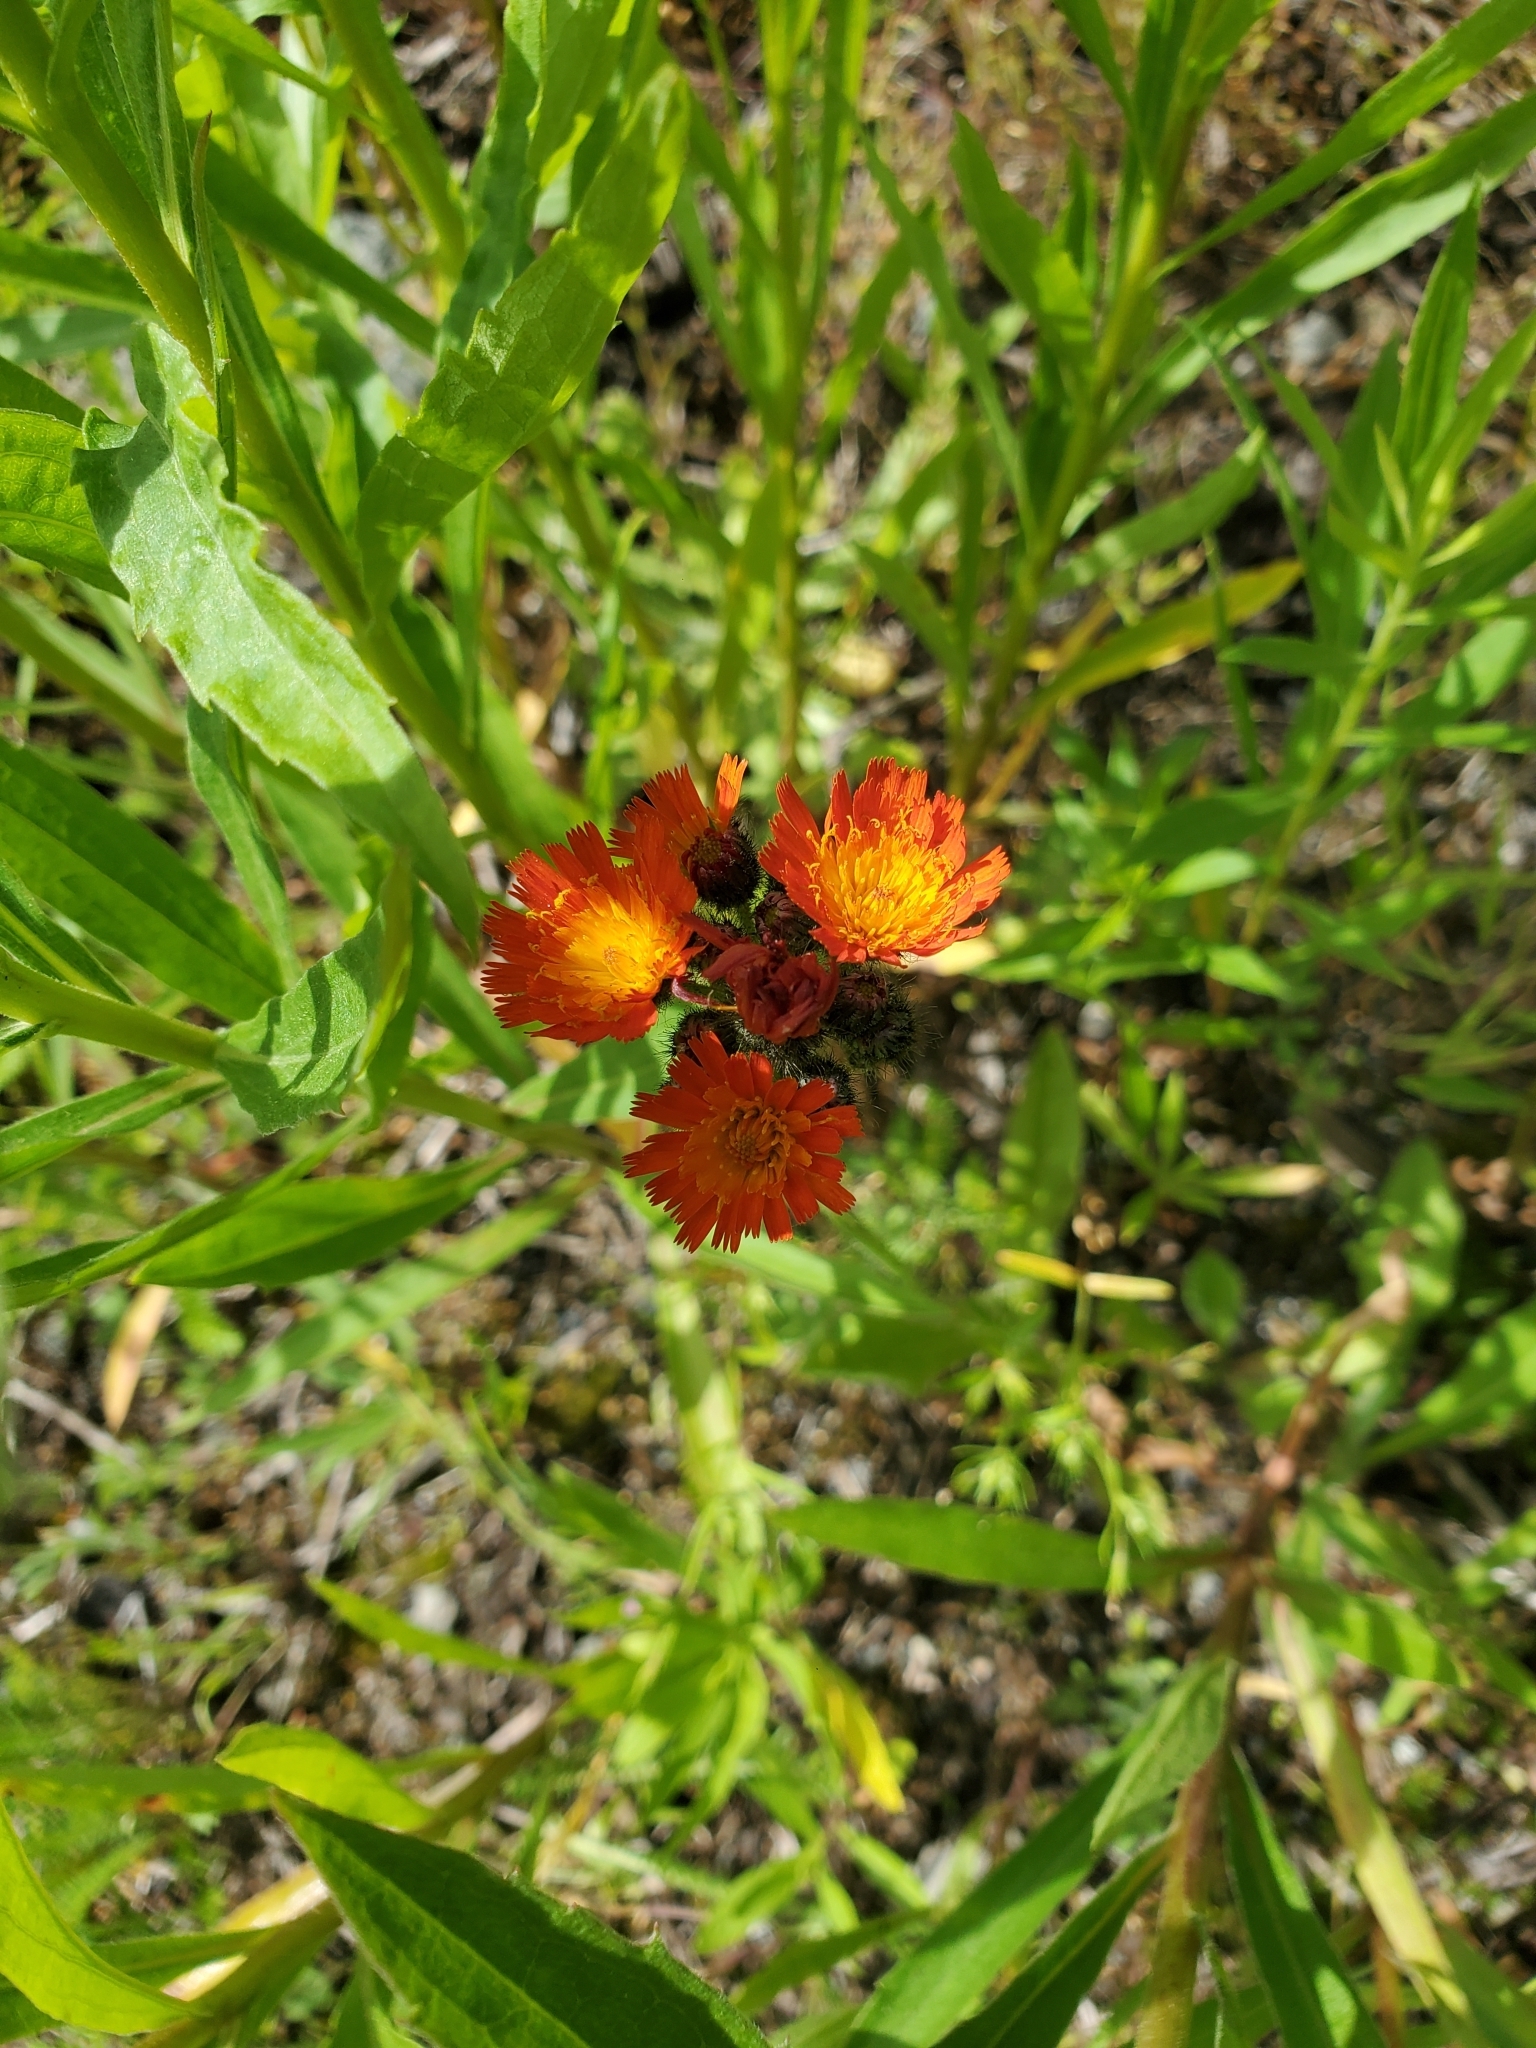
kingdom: Plantae
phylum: Tracheophyta
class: Magnoliopsida
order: Asterales
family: Asteraceae
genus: Pilosella
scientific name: Pilosella aurantiaca
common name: Fox-and-cubs
